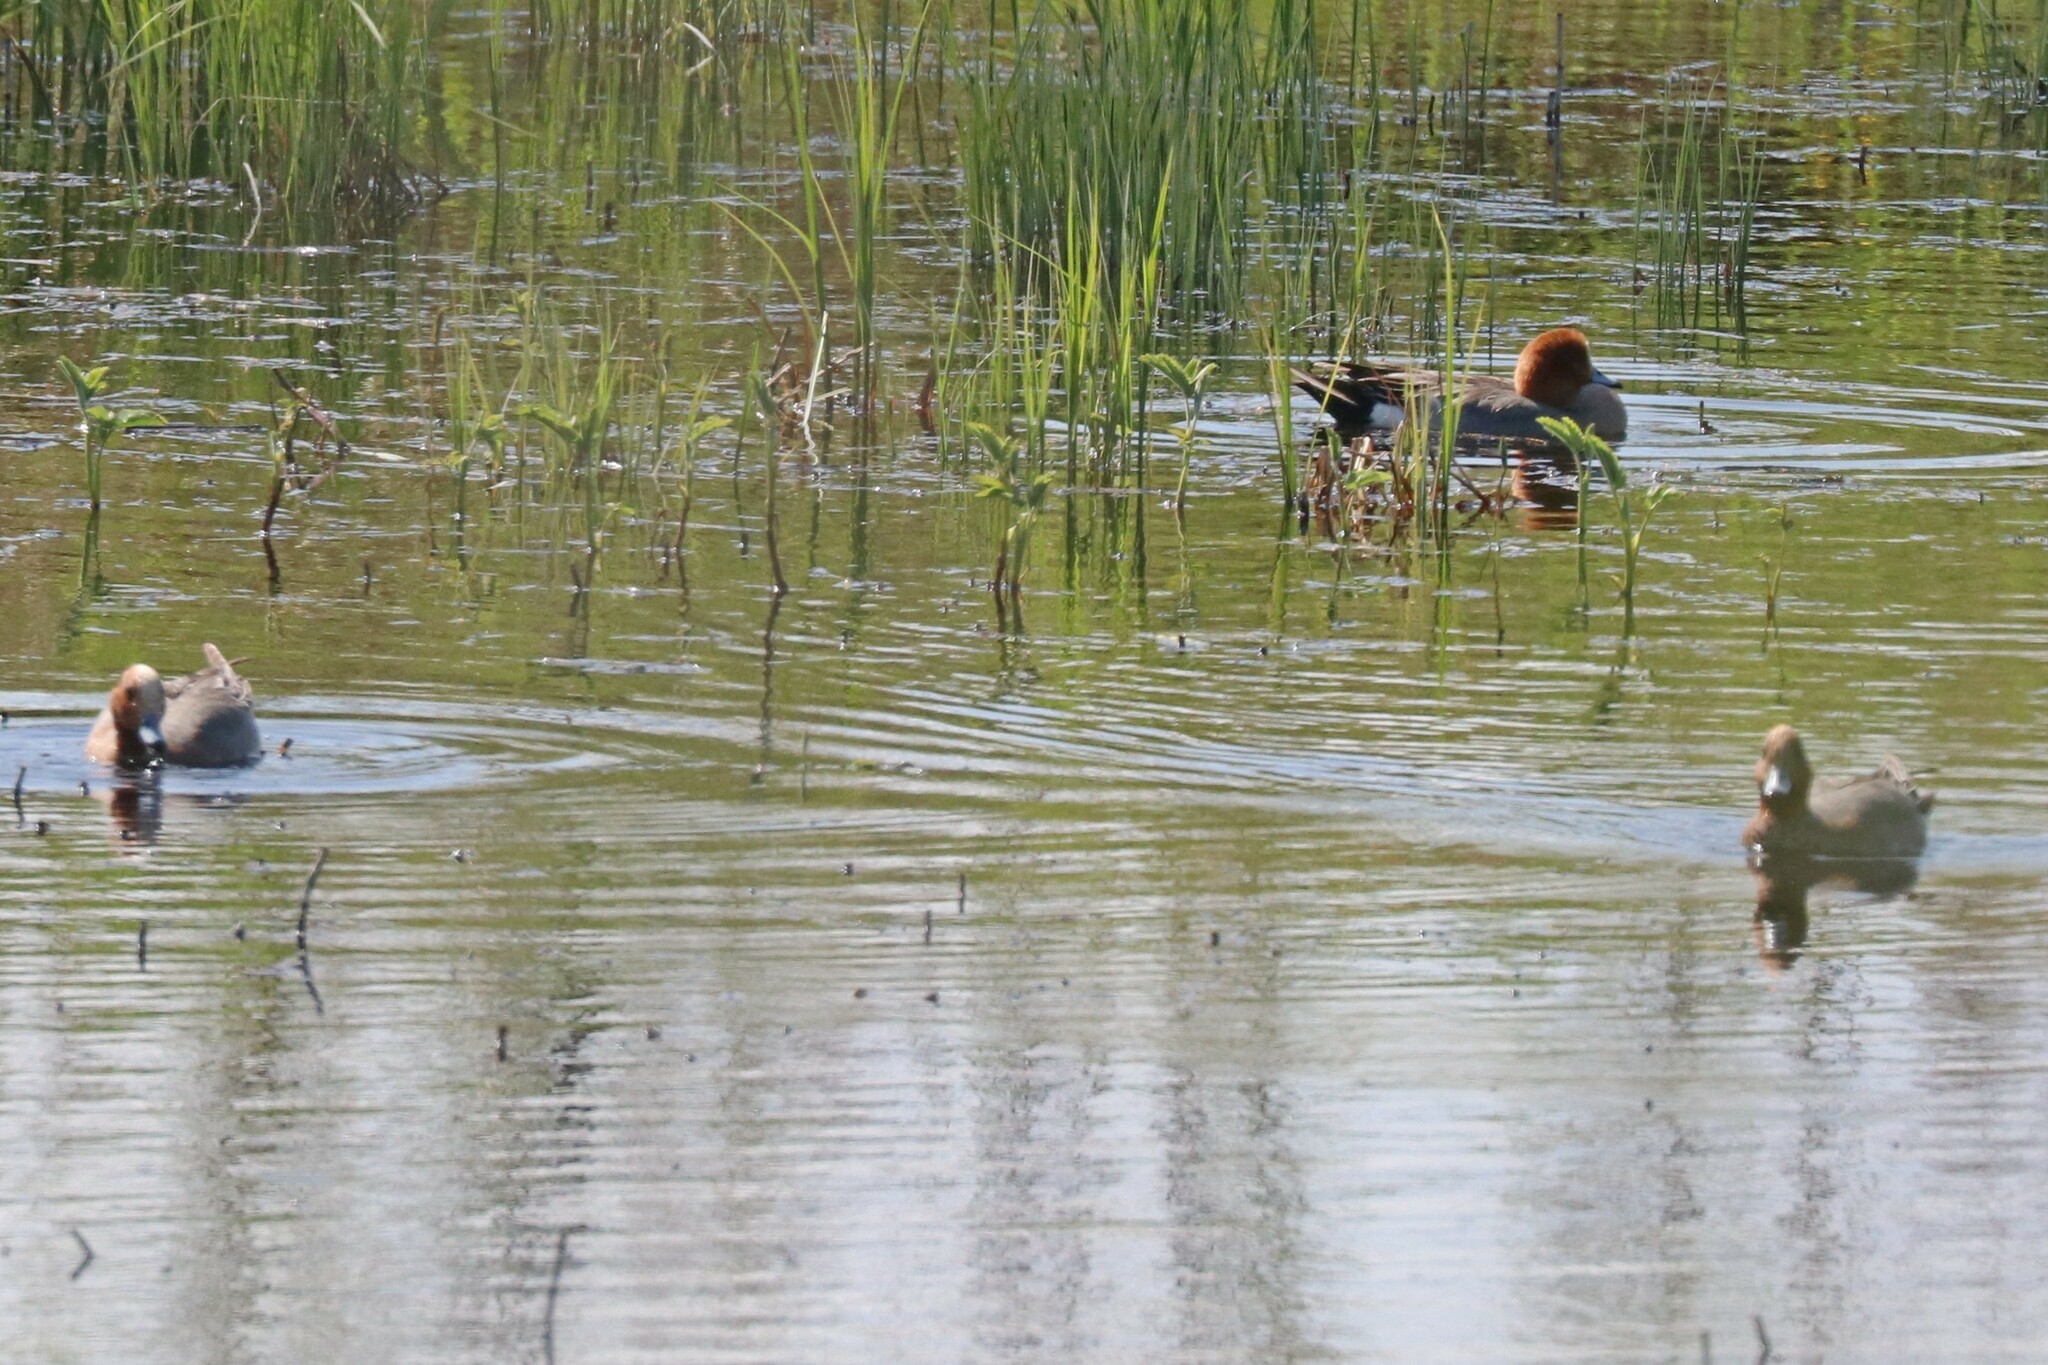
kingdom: Animalia
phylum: Chordata
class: Aves
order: Anseriformes
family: Anatidae
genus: Mareca
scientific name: Mareca penelope
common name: Eurasian wigeon
